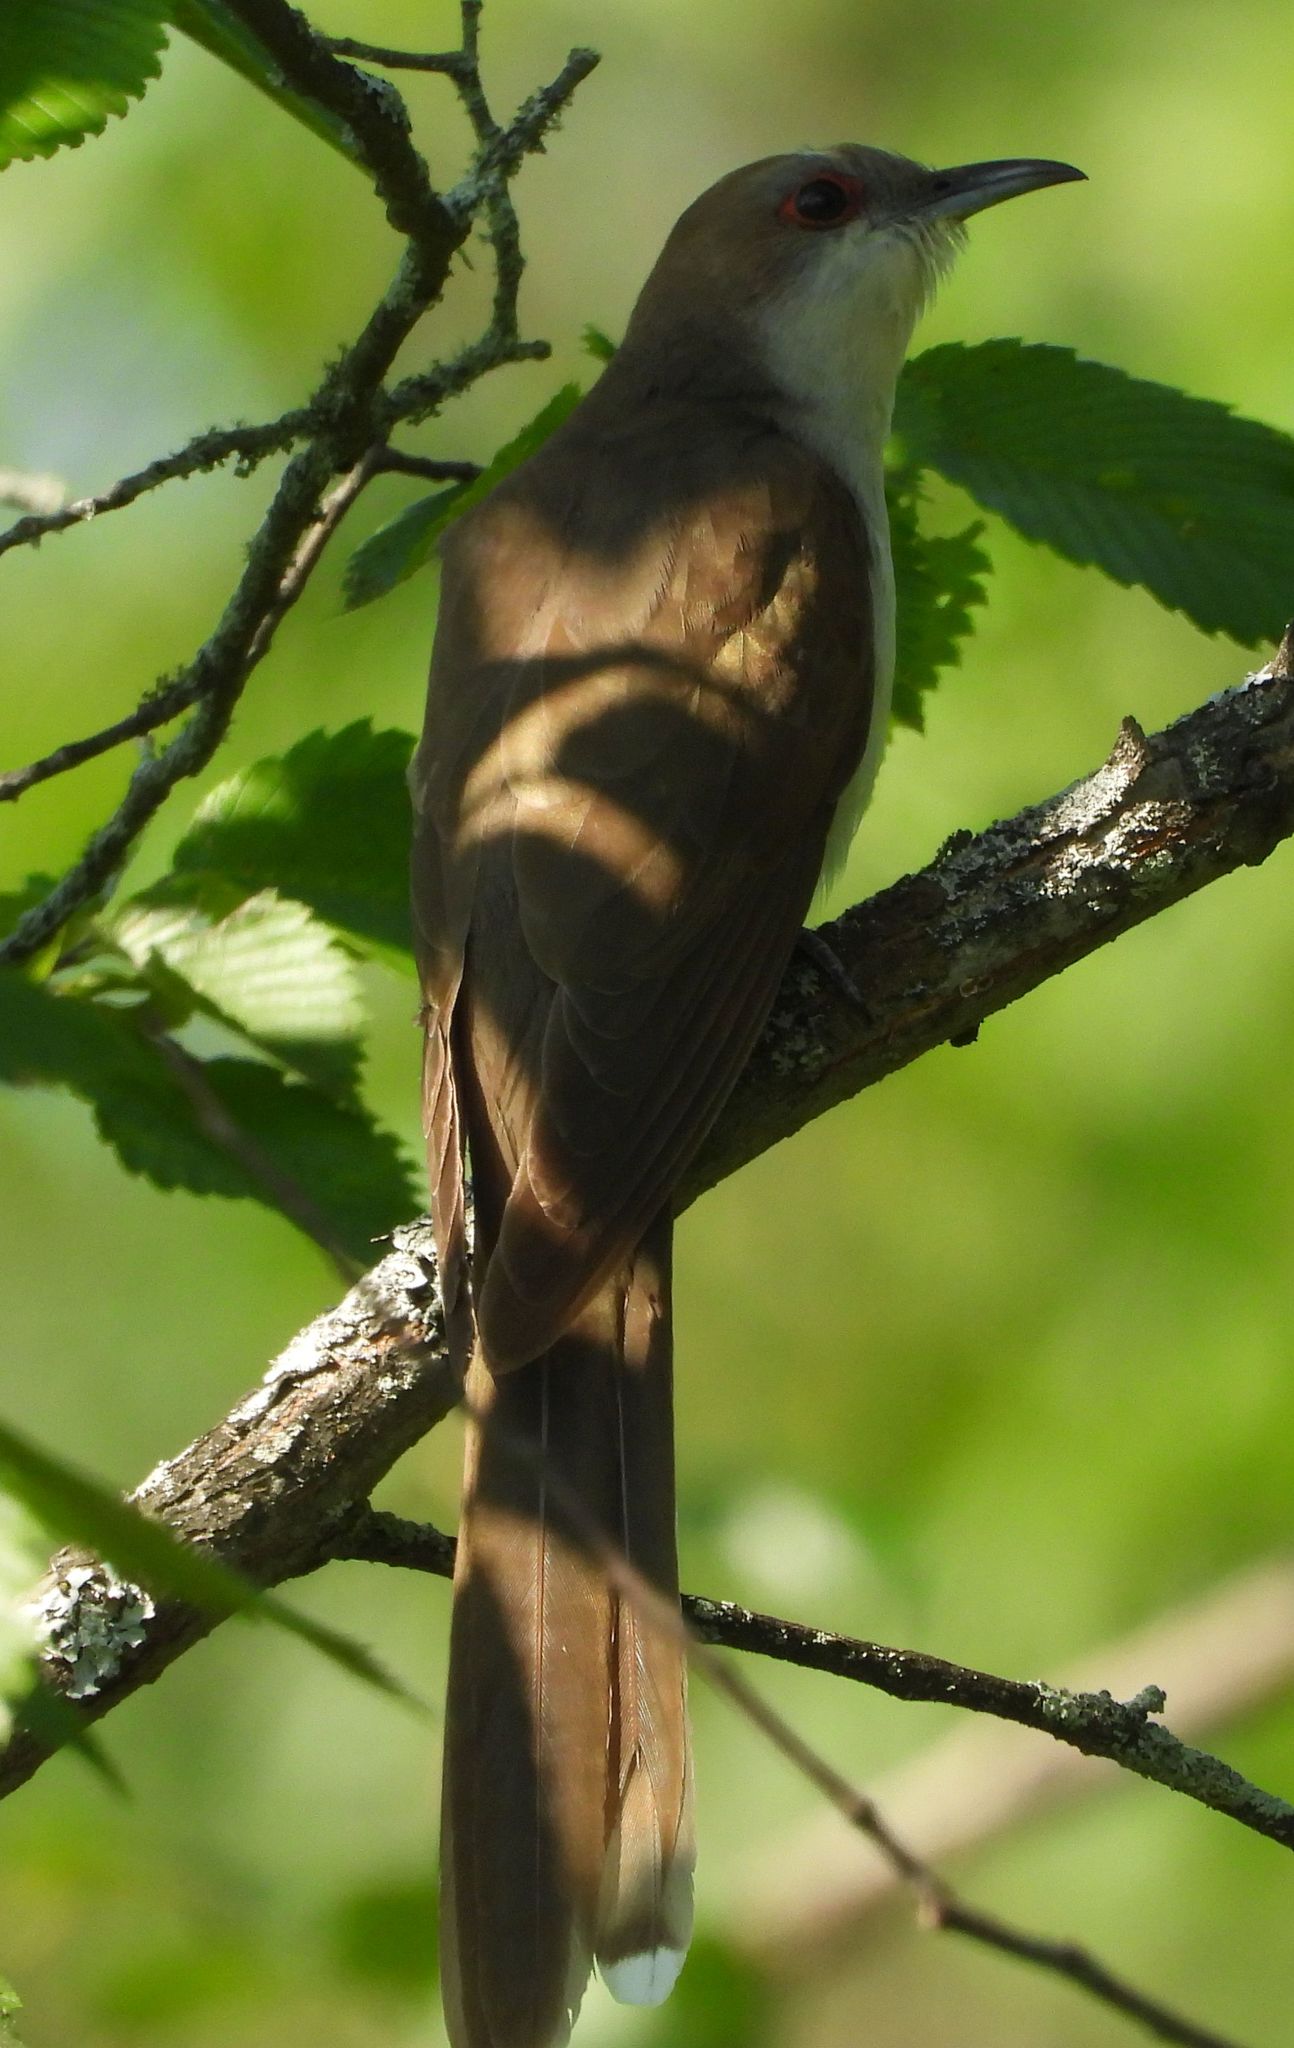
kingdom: Animalia
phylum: Chordata
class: Aves
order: Cuculiformes
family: Cuculidae
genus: Coccyzus
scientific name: Coccyzus erythropthalmus
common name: Black-billed cuckoo
